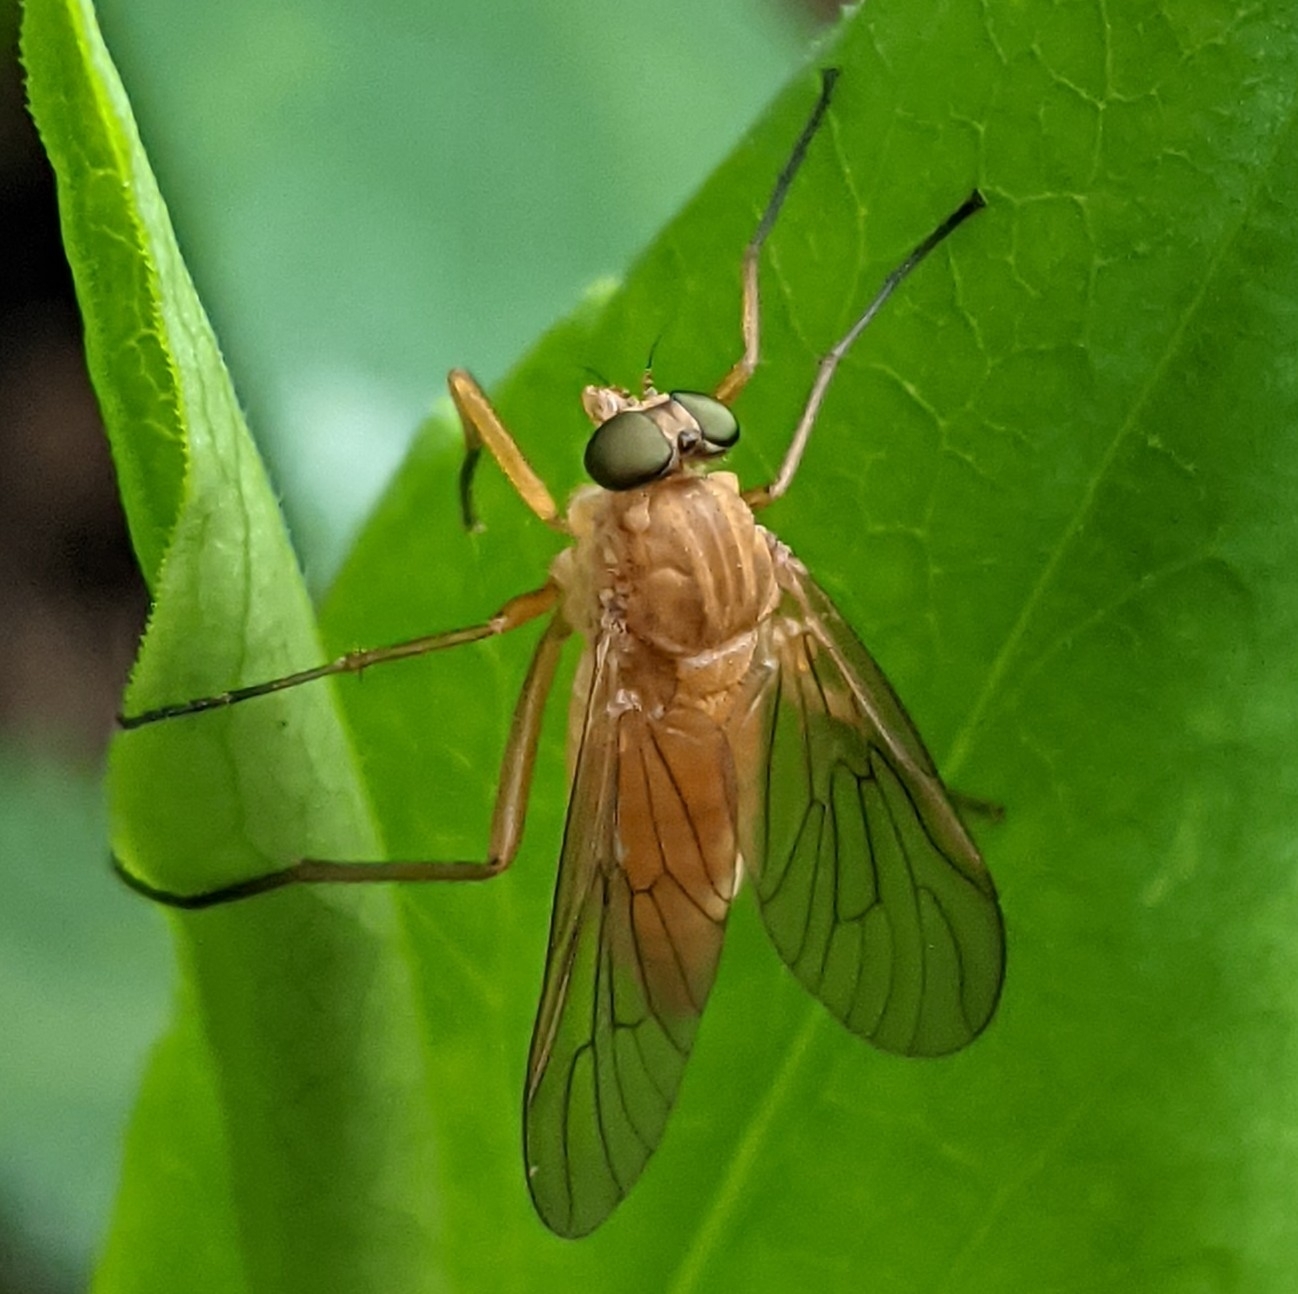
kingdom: Animalia
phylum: Arthropoda
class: Insecta
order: Diptera
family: Rhagionidae
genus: Rhagio
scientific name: Rhagio tringaria
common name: Marsh snipefly
